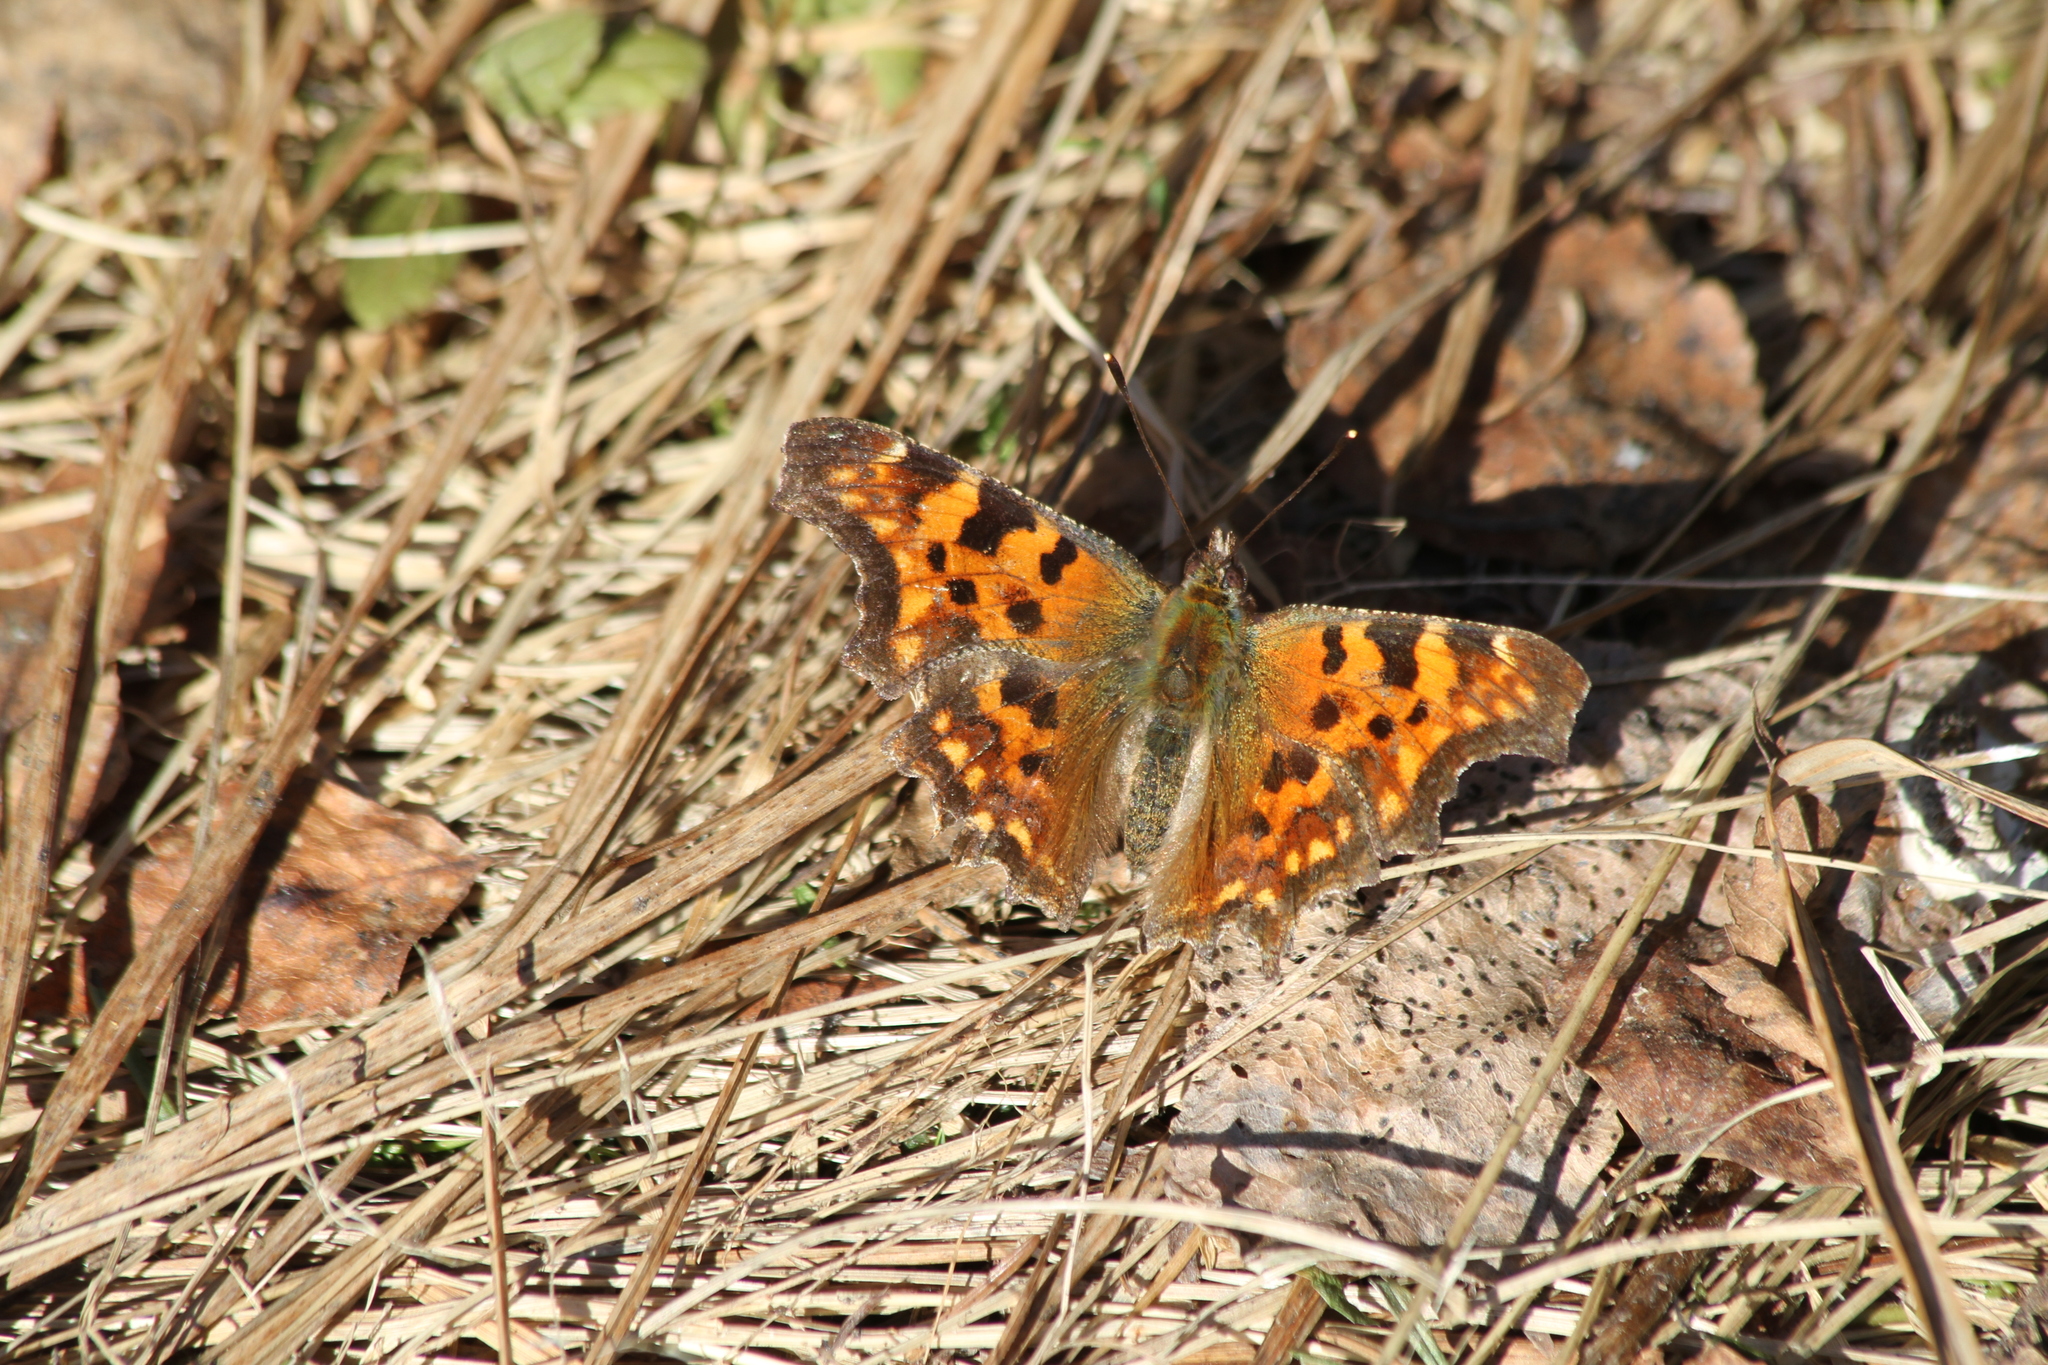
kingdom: Animalia
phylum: Arthropoda
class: Insecta
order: Lepidoptera
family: Nymphalidae
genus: Polygonia
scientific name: Polygonia c-album
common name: Comma
